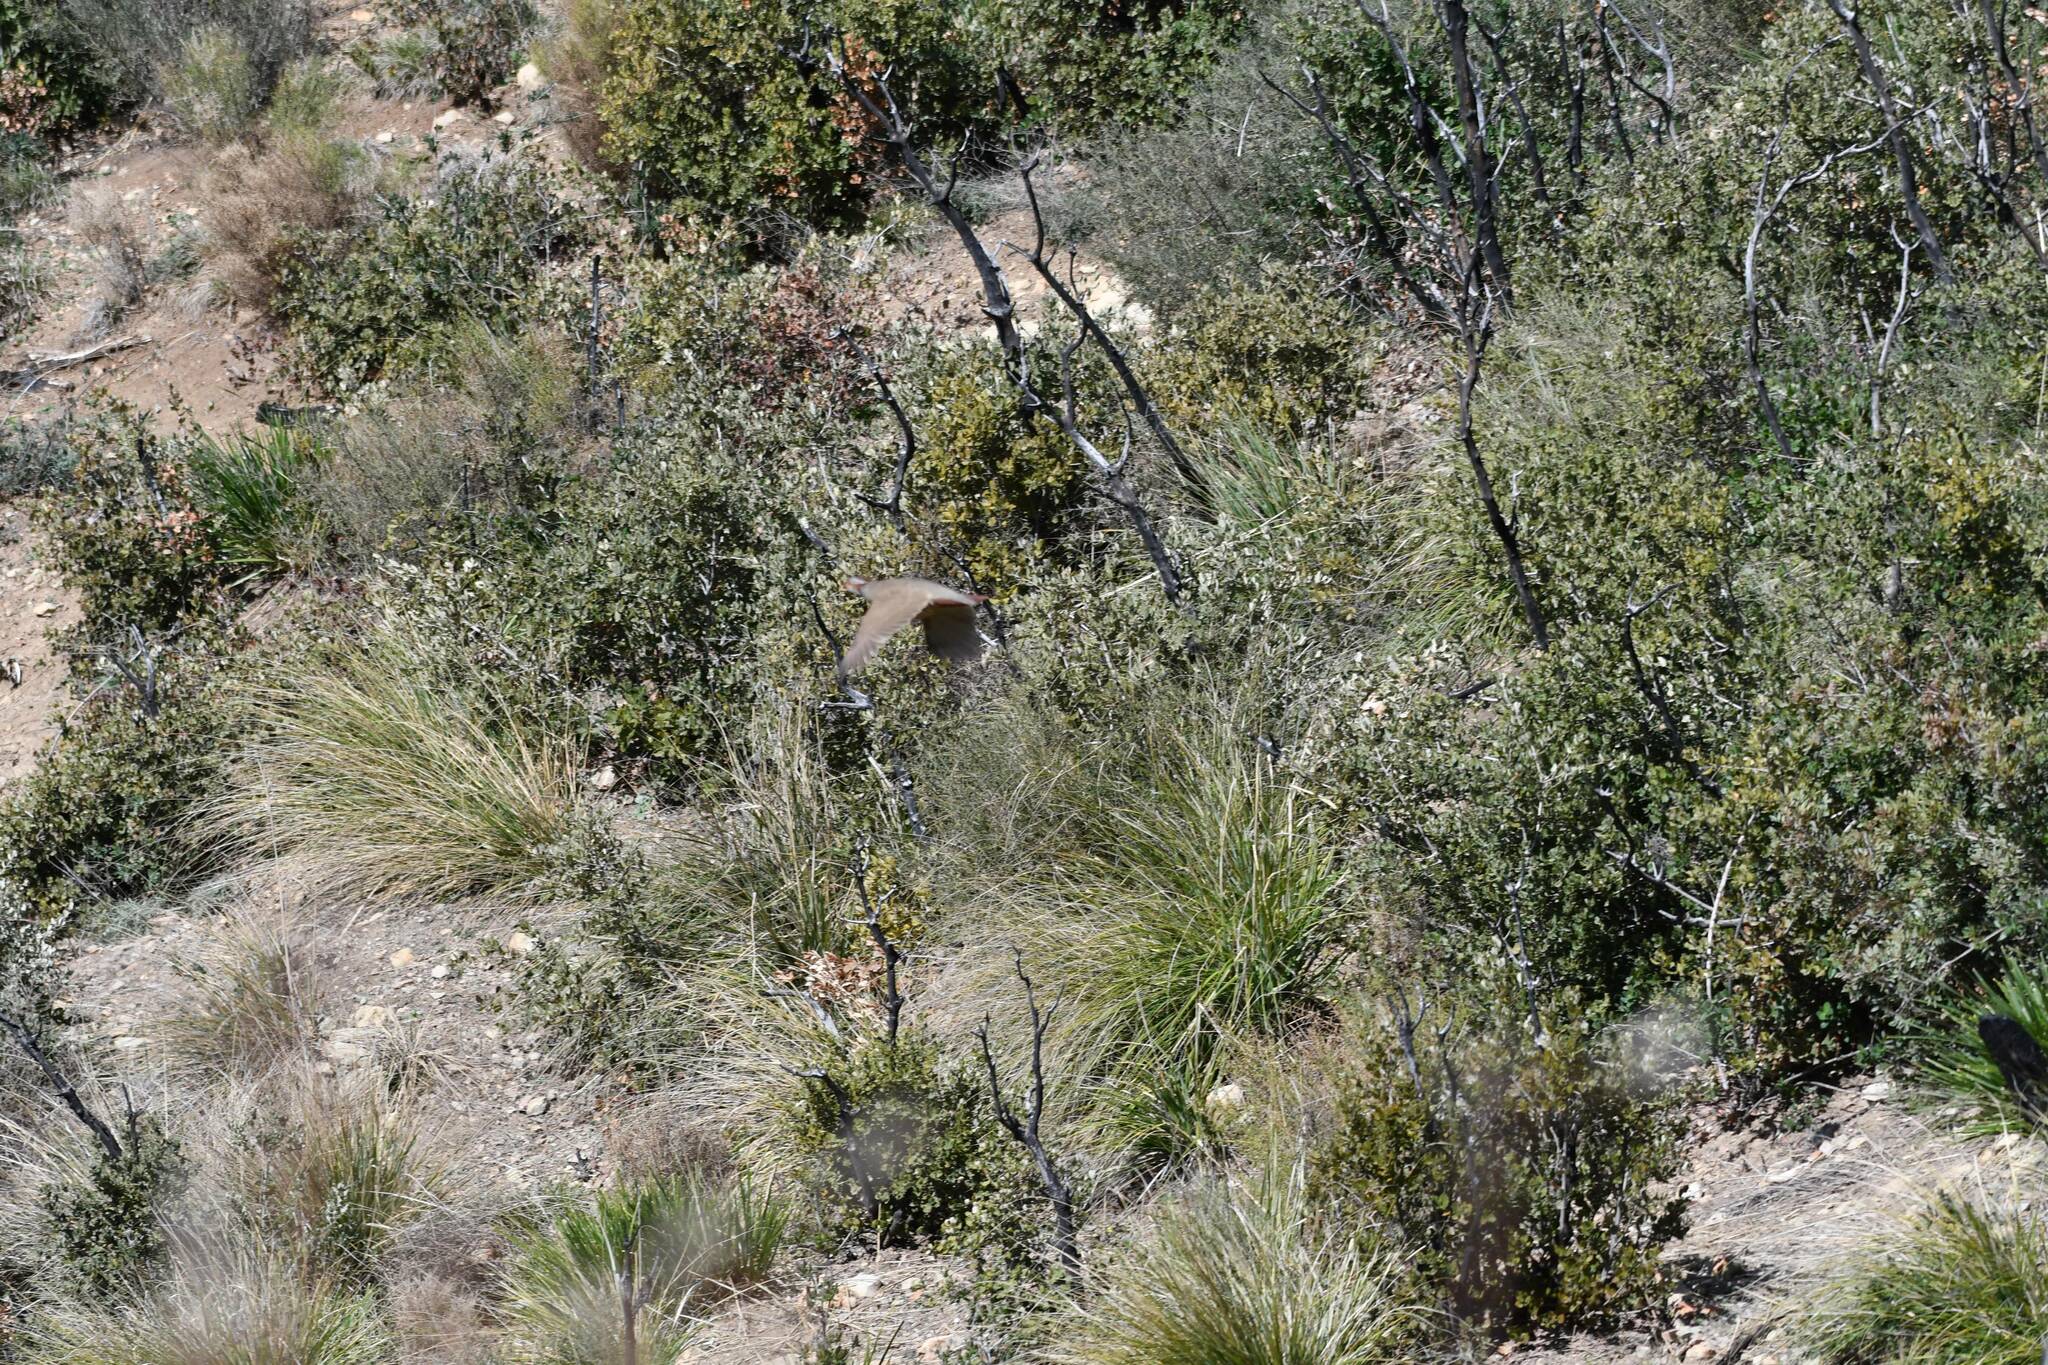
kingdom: Animalia
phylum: Chordata
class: Aves
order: Galliformes
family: Phasianidae
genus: Alectoris
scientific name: Alectoris barbara
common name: Barbary partridge
